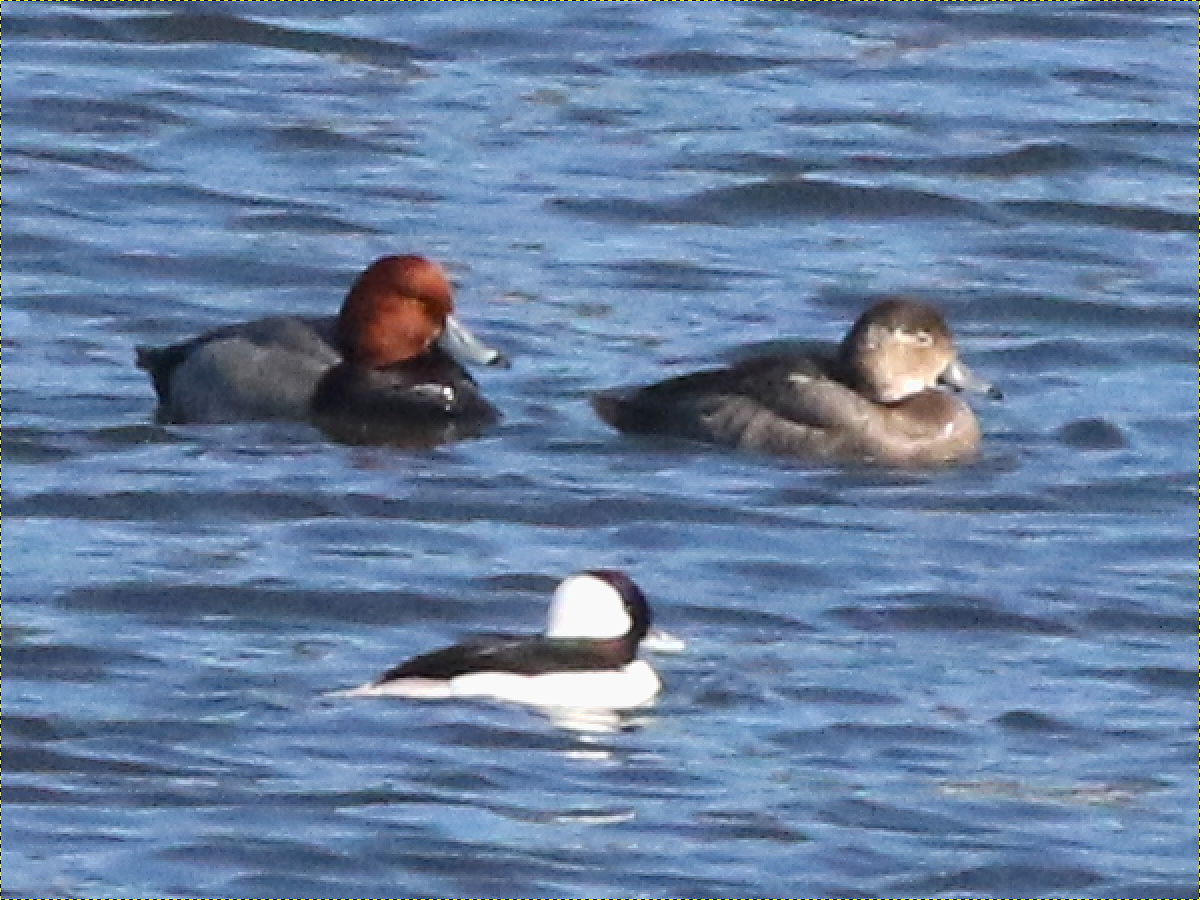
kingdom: Animalia
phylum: Chordata
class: Aves
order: Anseriformes
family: Anatidae
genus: Aythya
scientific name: Aythya americana
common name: Redhead
